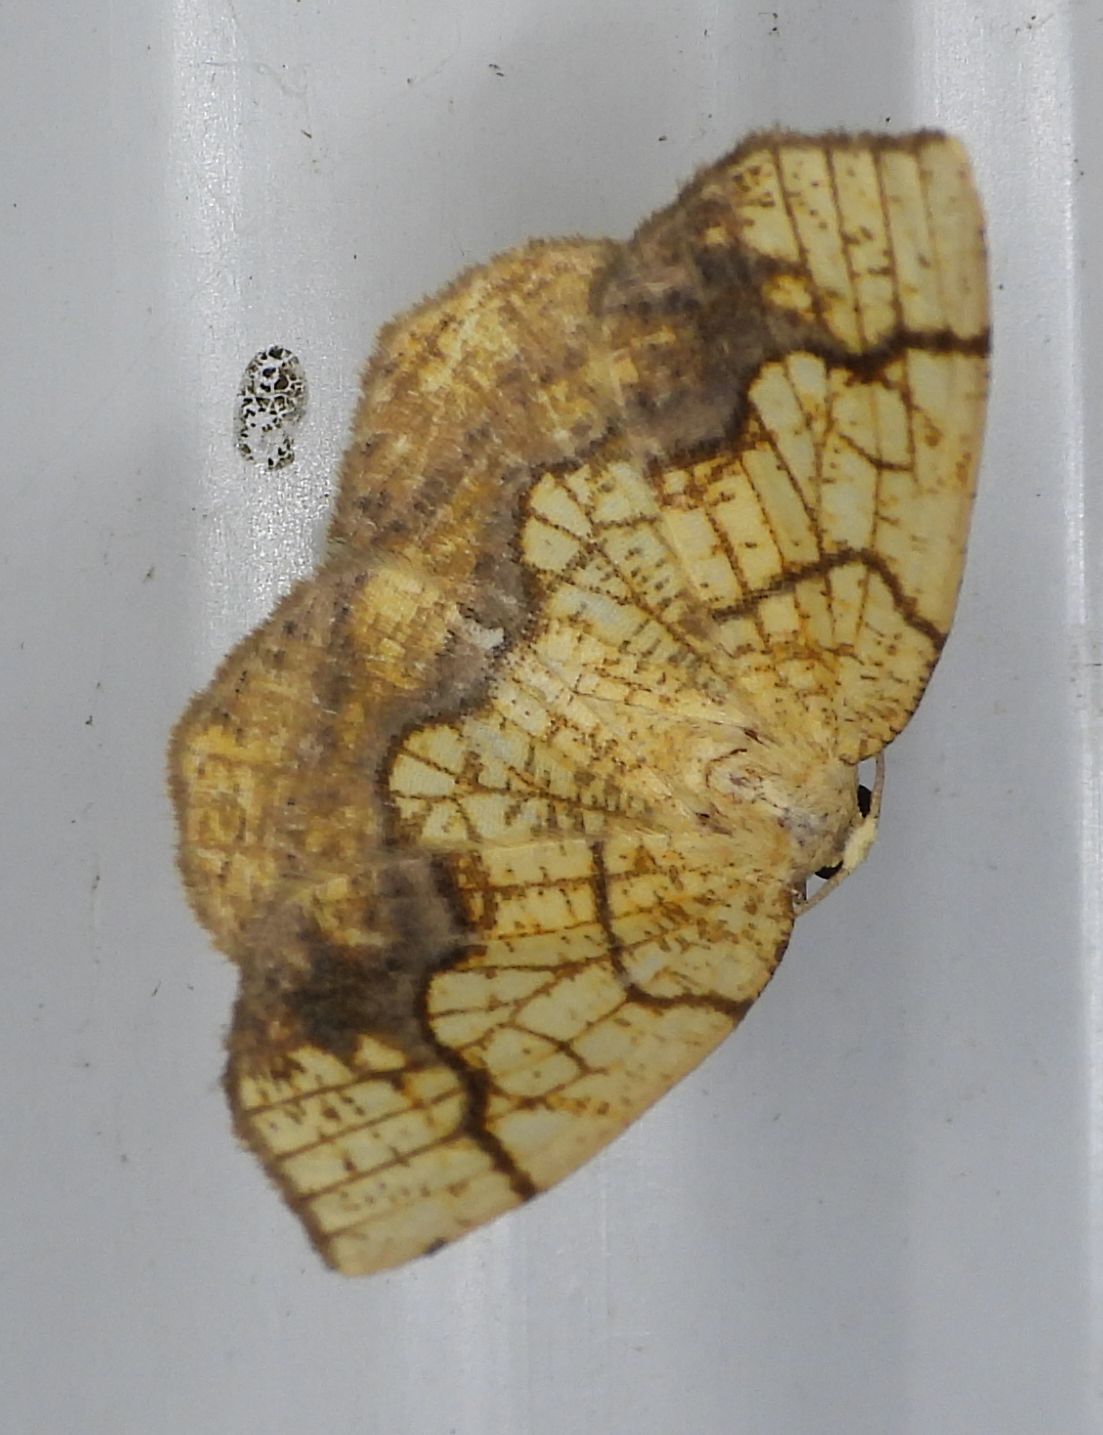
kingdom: Animalia
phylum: Arthropoda
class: Insecta
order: Lepidoptera
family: Geometridae
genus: Nematocampa
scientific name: Nematocampa resistaria
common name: Horned spanworm moth
